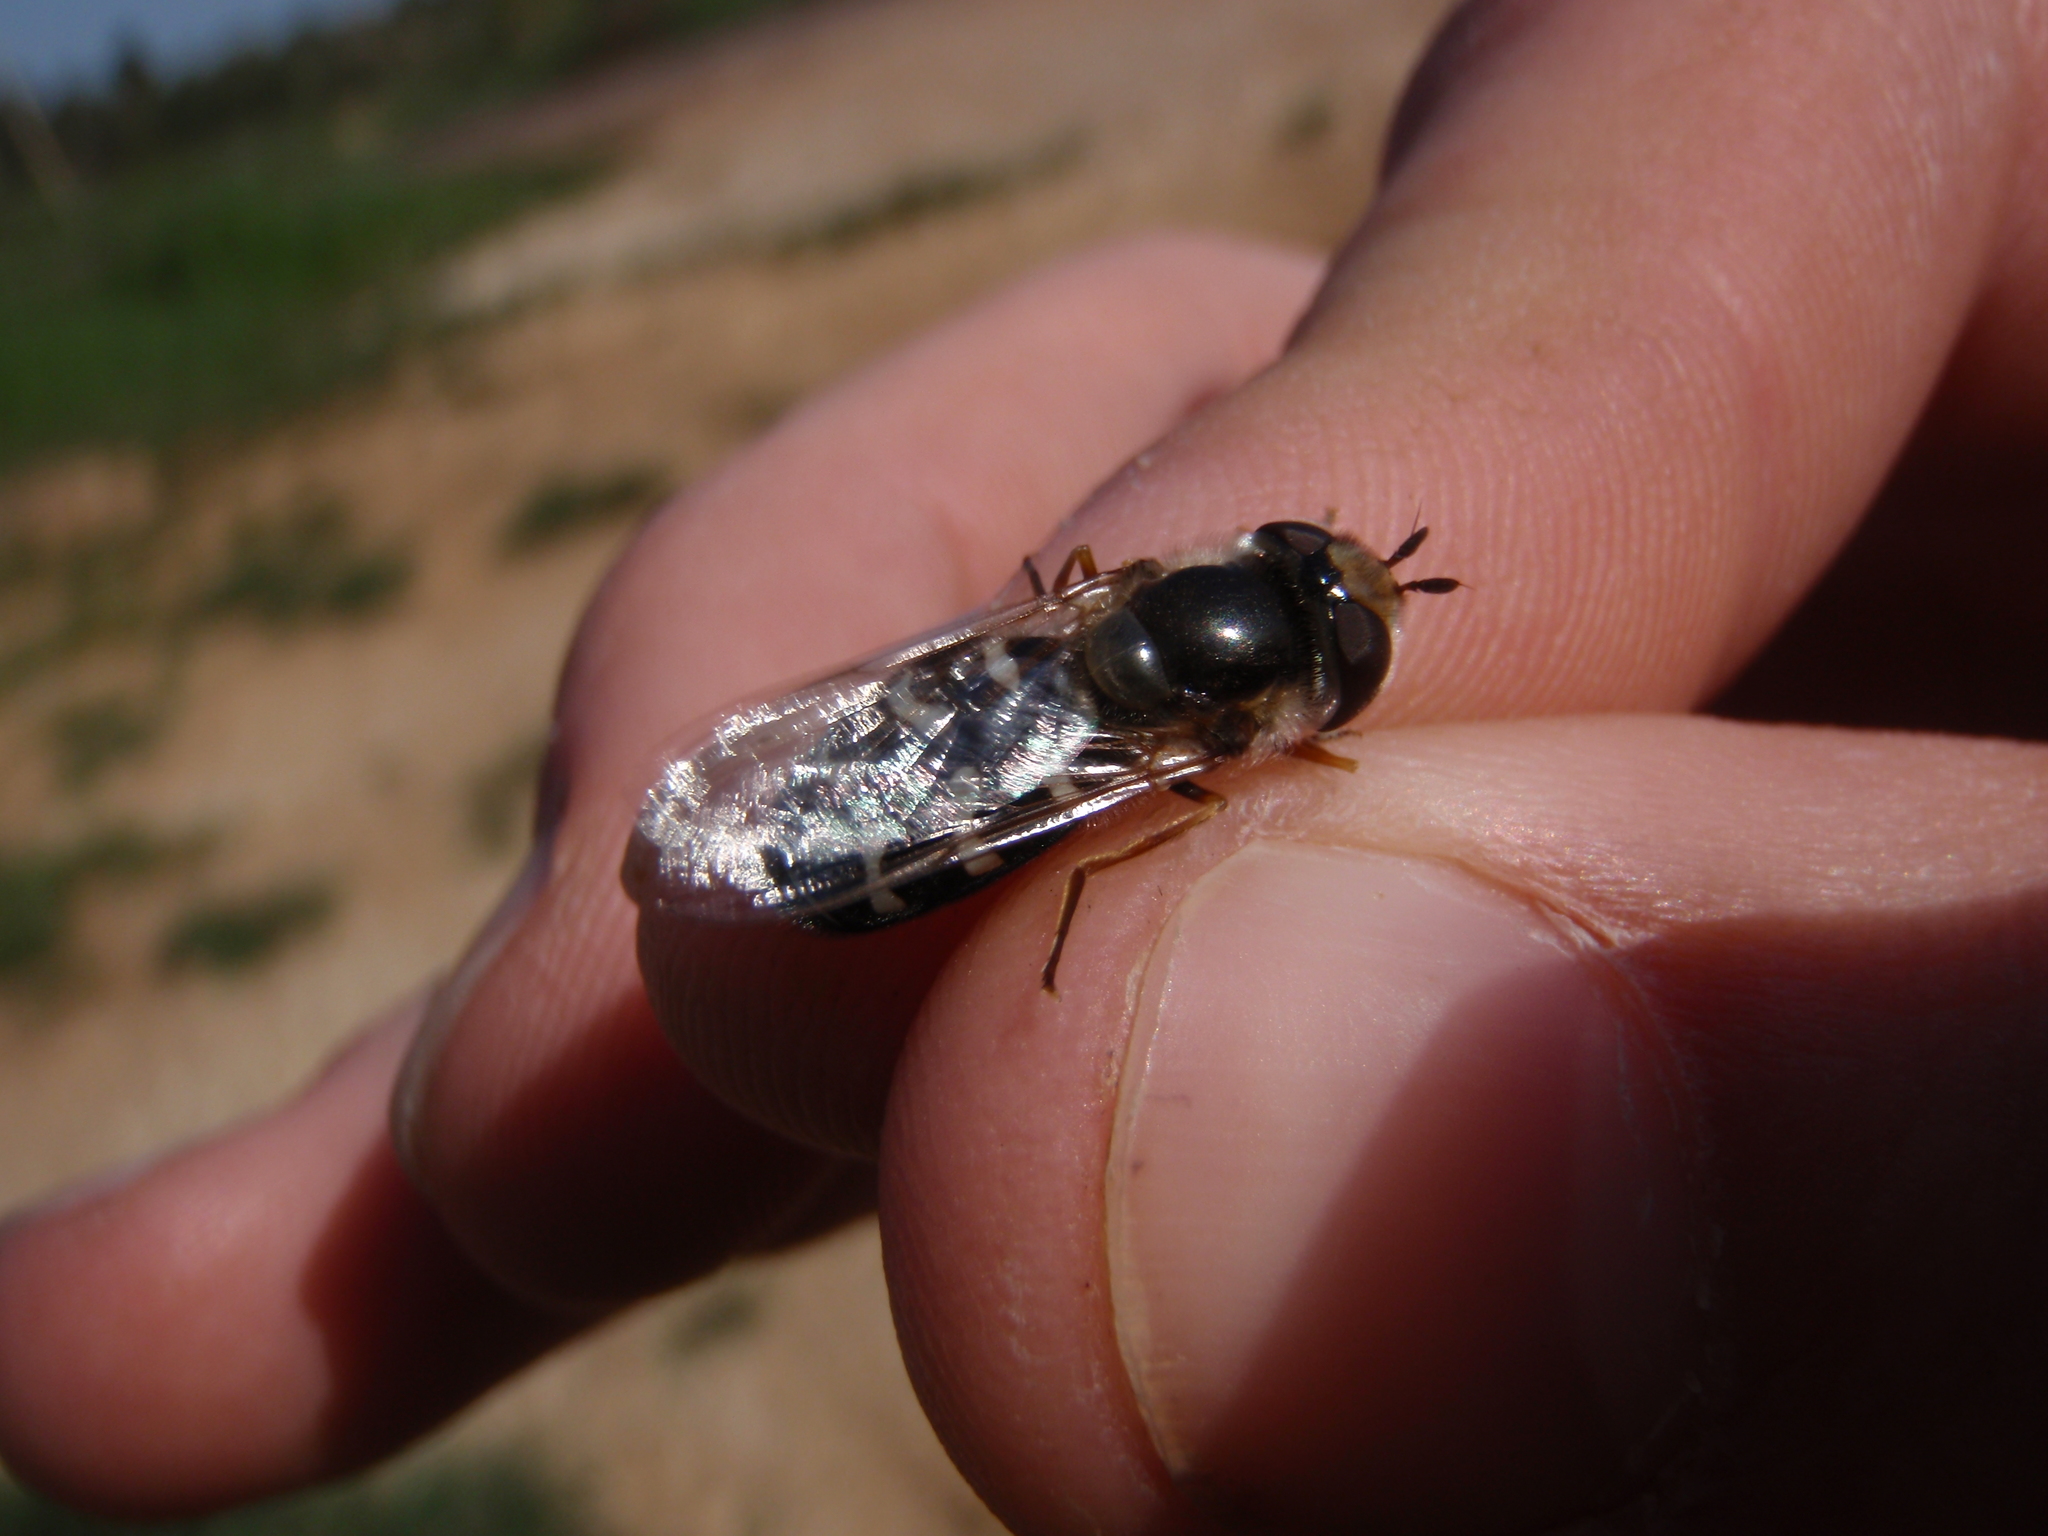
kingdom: Animalia
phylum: Arthropoda
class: Insecta
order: Diptera
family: Syrphidae
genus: Scaeva
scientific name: Scaeva pyrastri
